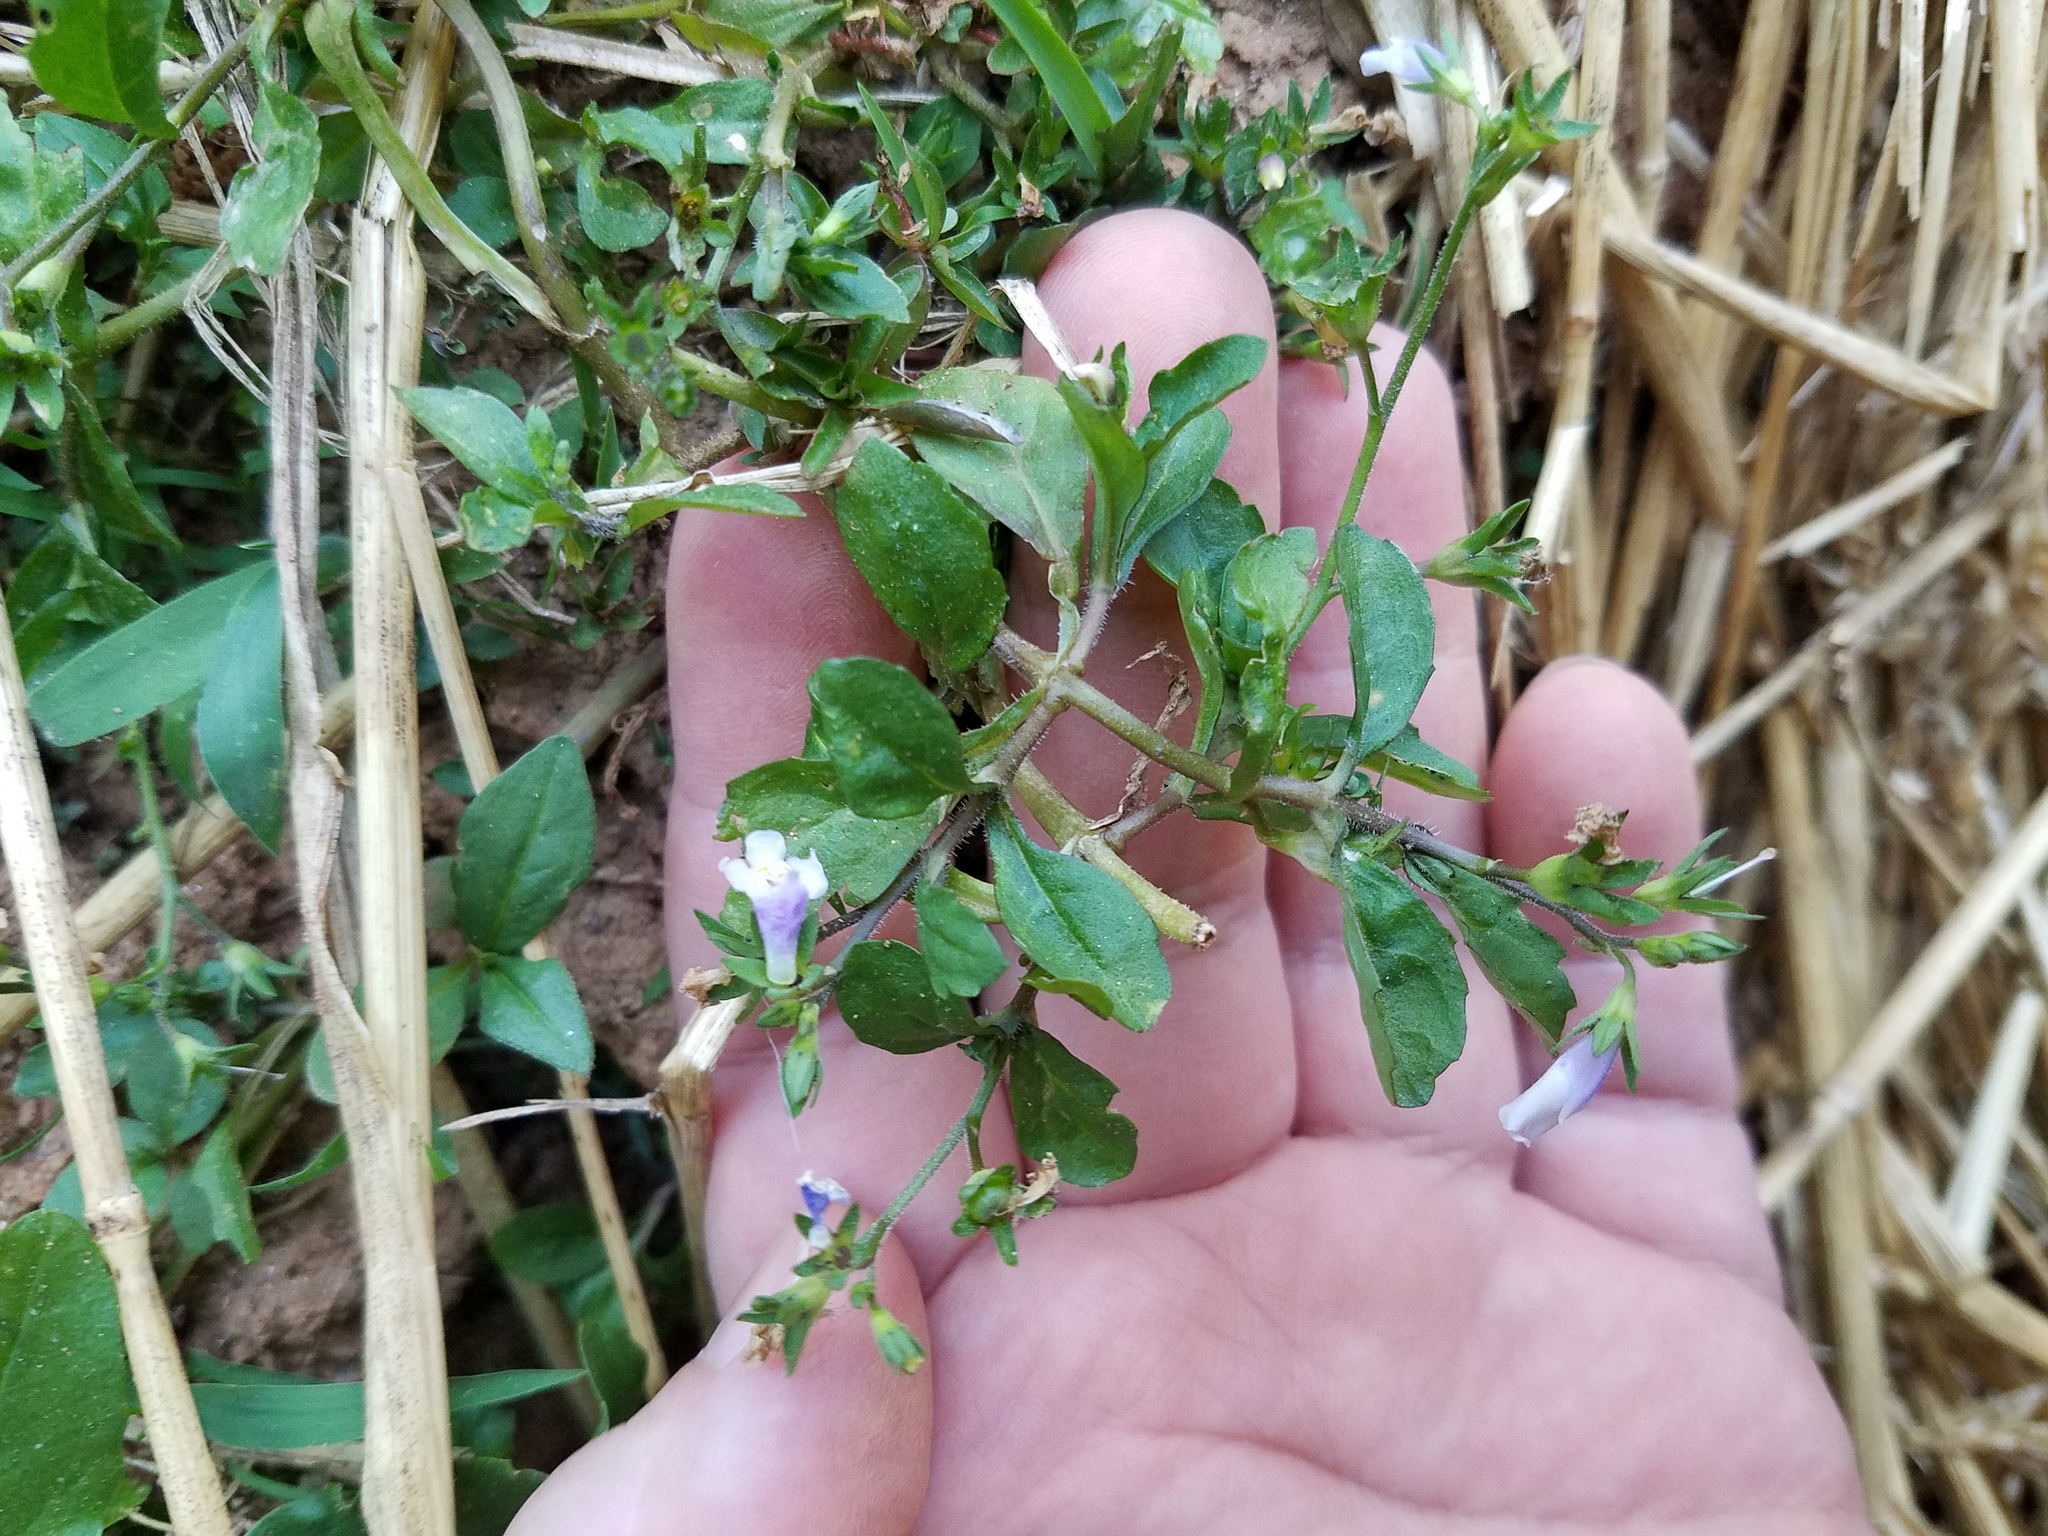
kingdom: Plantae
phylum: Tracheophyta
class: Magnoliopsida
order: Lamiales
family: Mazaceae
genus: Mazus
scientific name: Mazus pumilus
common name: Japanese mazus
